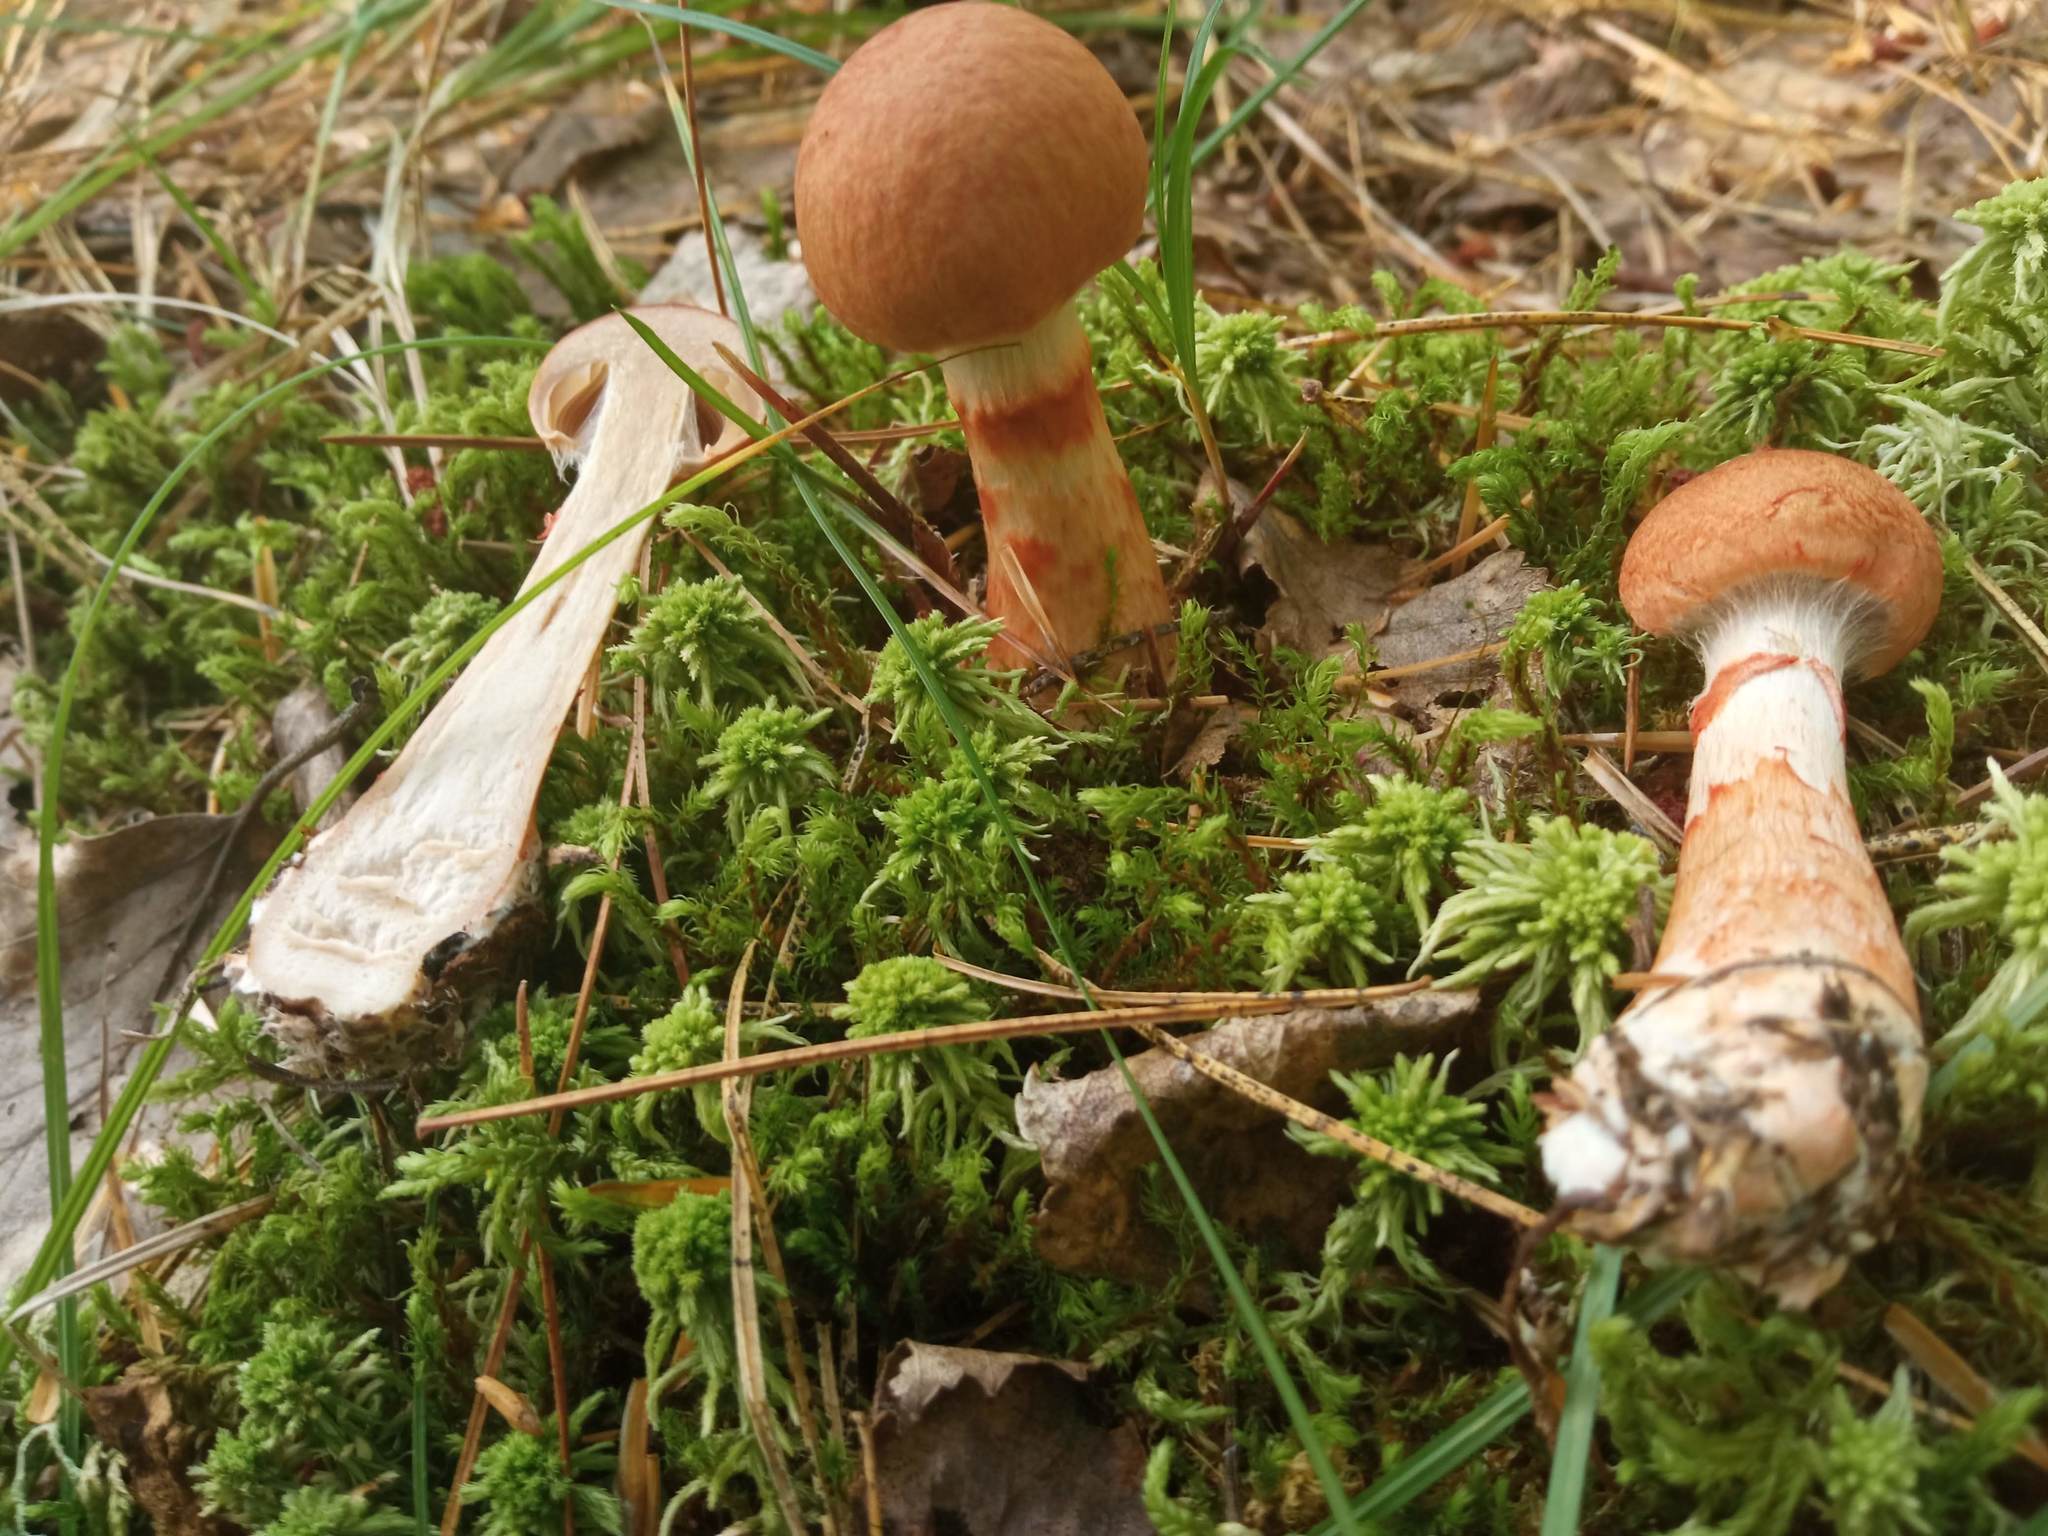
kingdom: Fungi
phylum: Basidiomycota
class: Agaricomycetes
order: Agaricales
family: Cortinariaceae
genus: Cortinarius
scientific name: Cortinarius armillatus
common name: Red banded webcap
